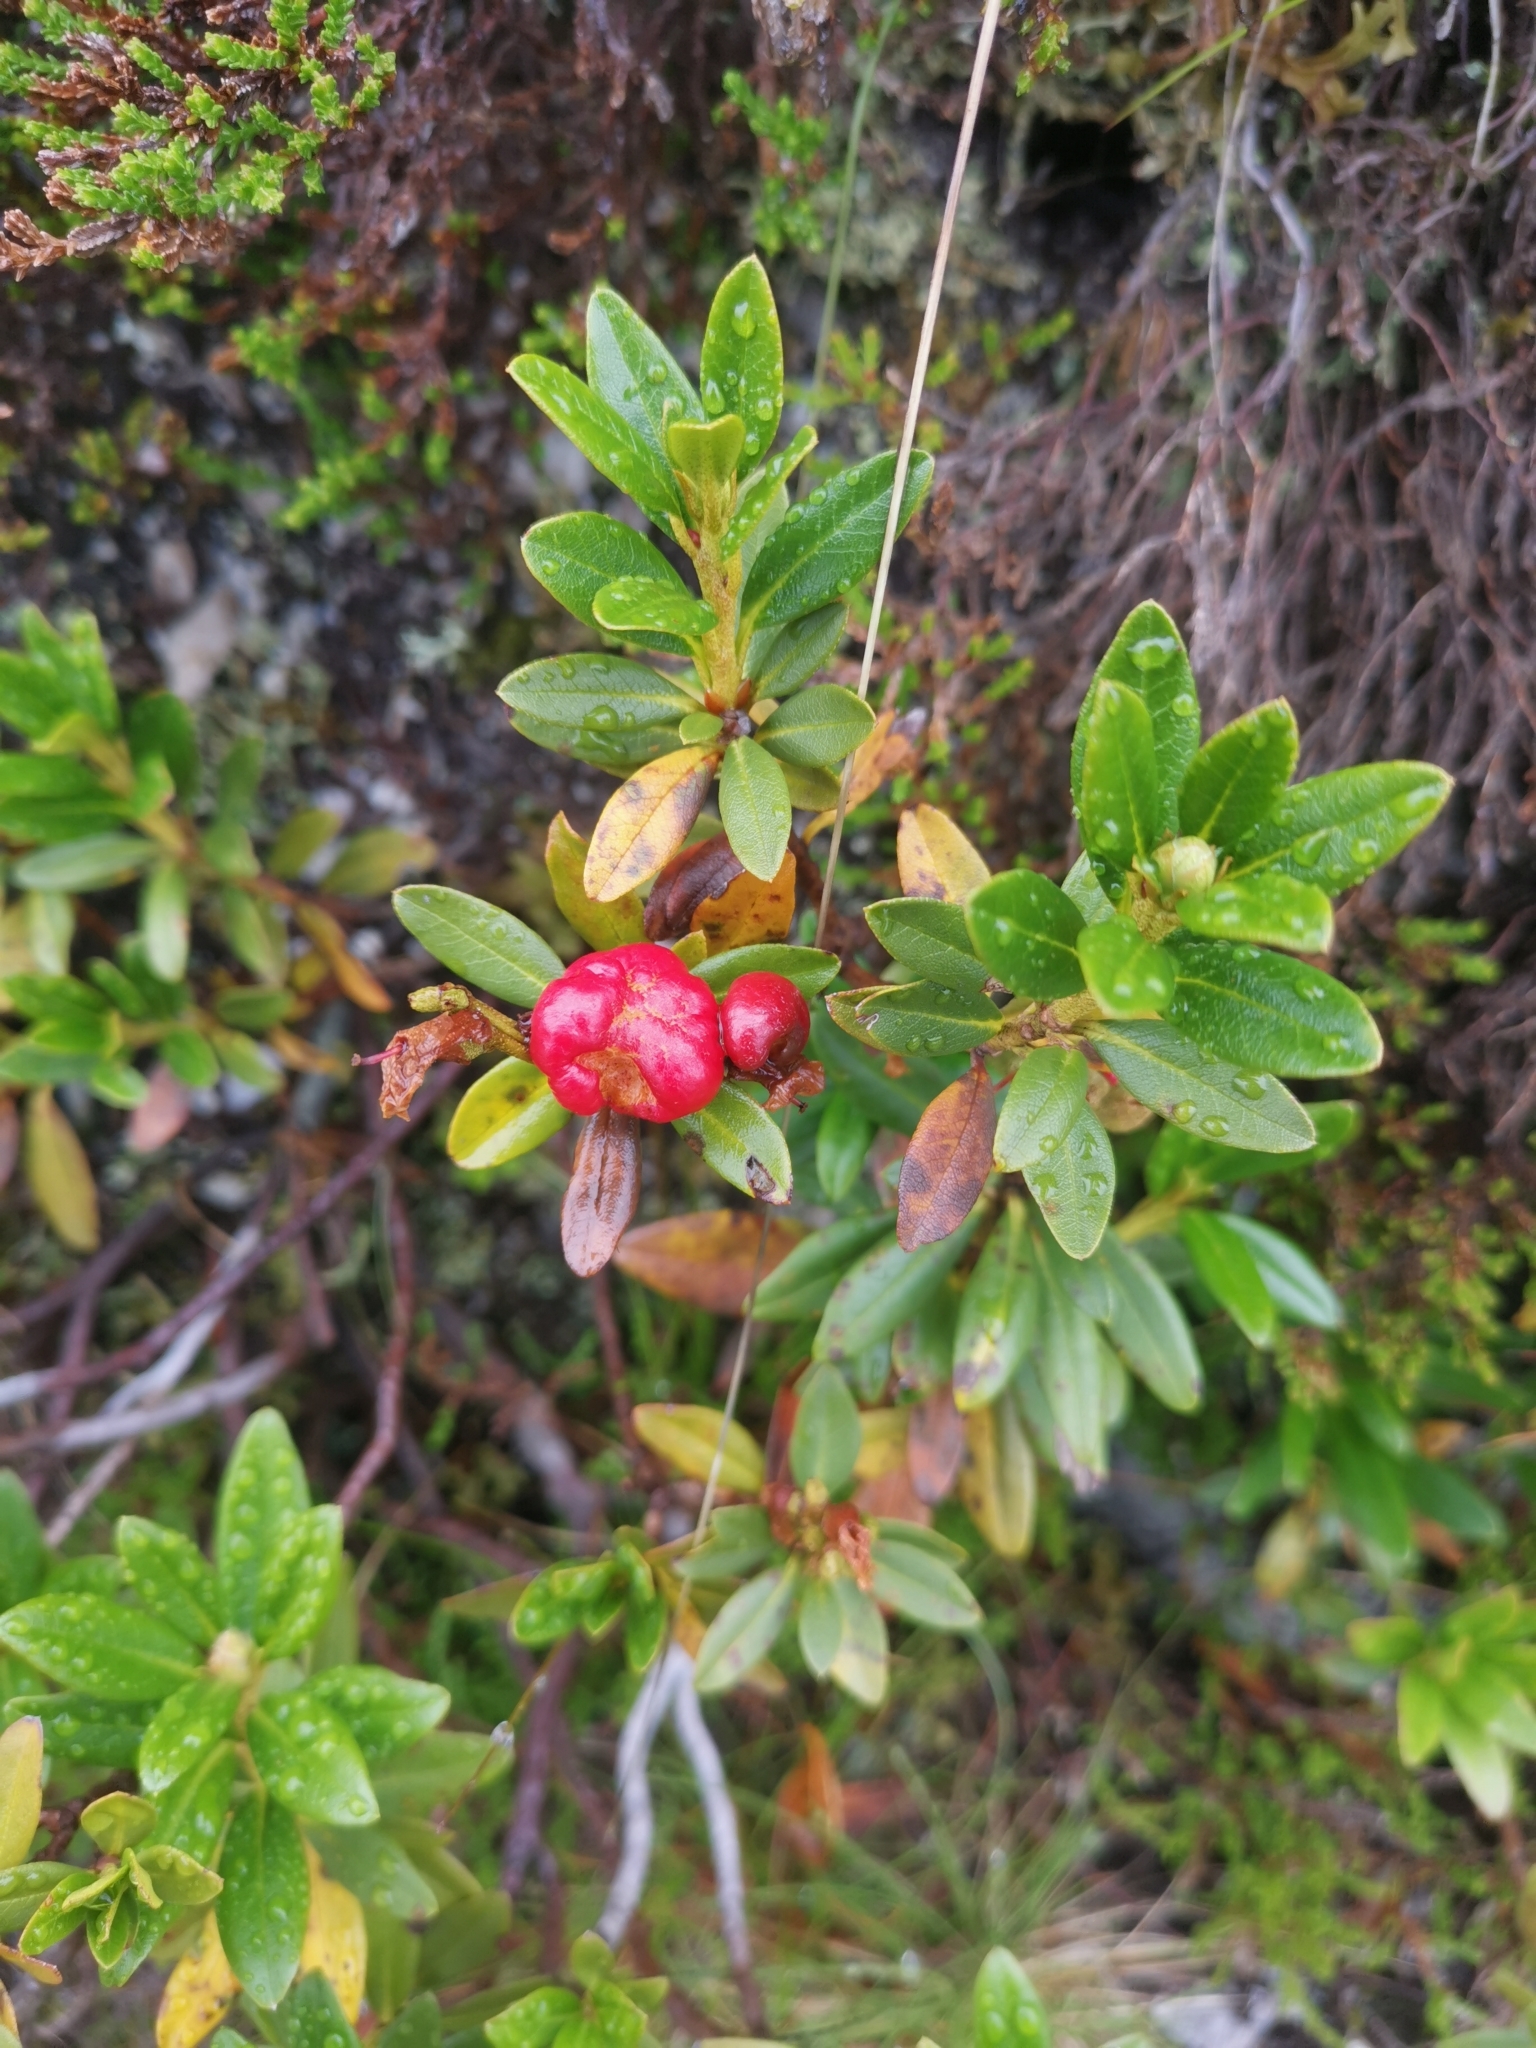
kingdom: Plantae
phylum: Tracheophyta
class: Magnoliopsida
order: Ericales
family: Ericaceae
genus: Rhododendron
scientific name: Rhododendron ferrugineum
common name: Alpenrose
